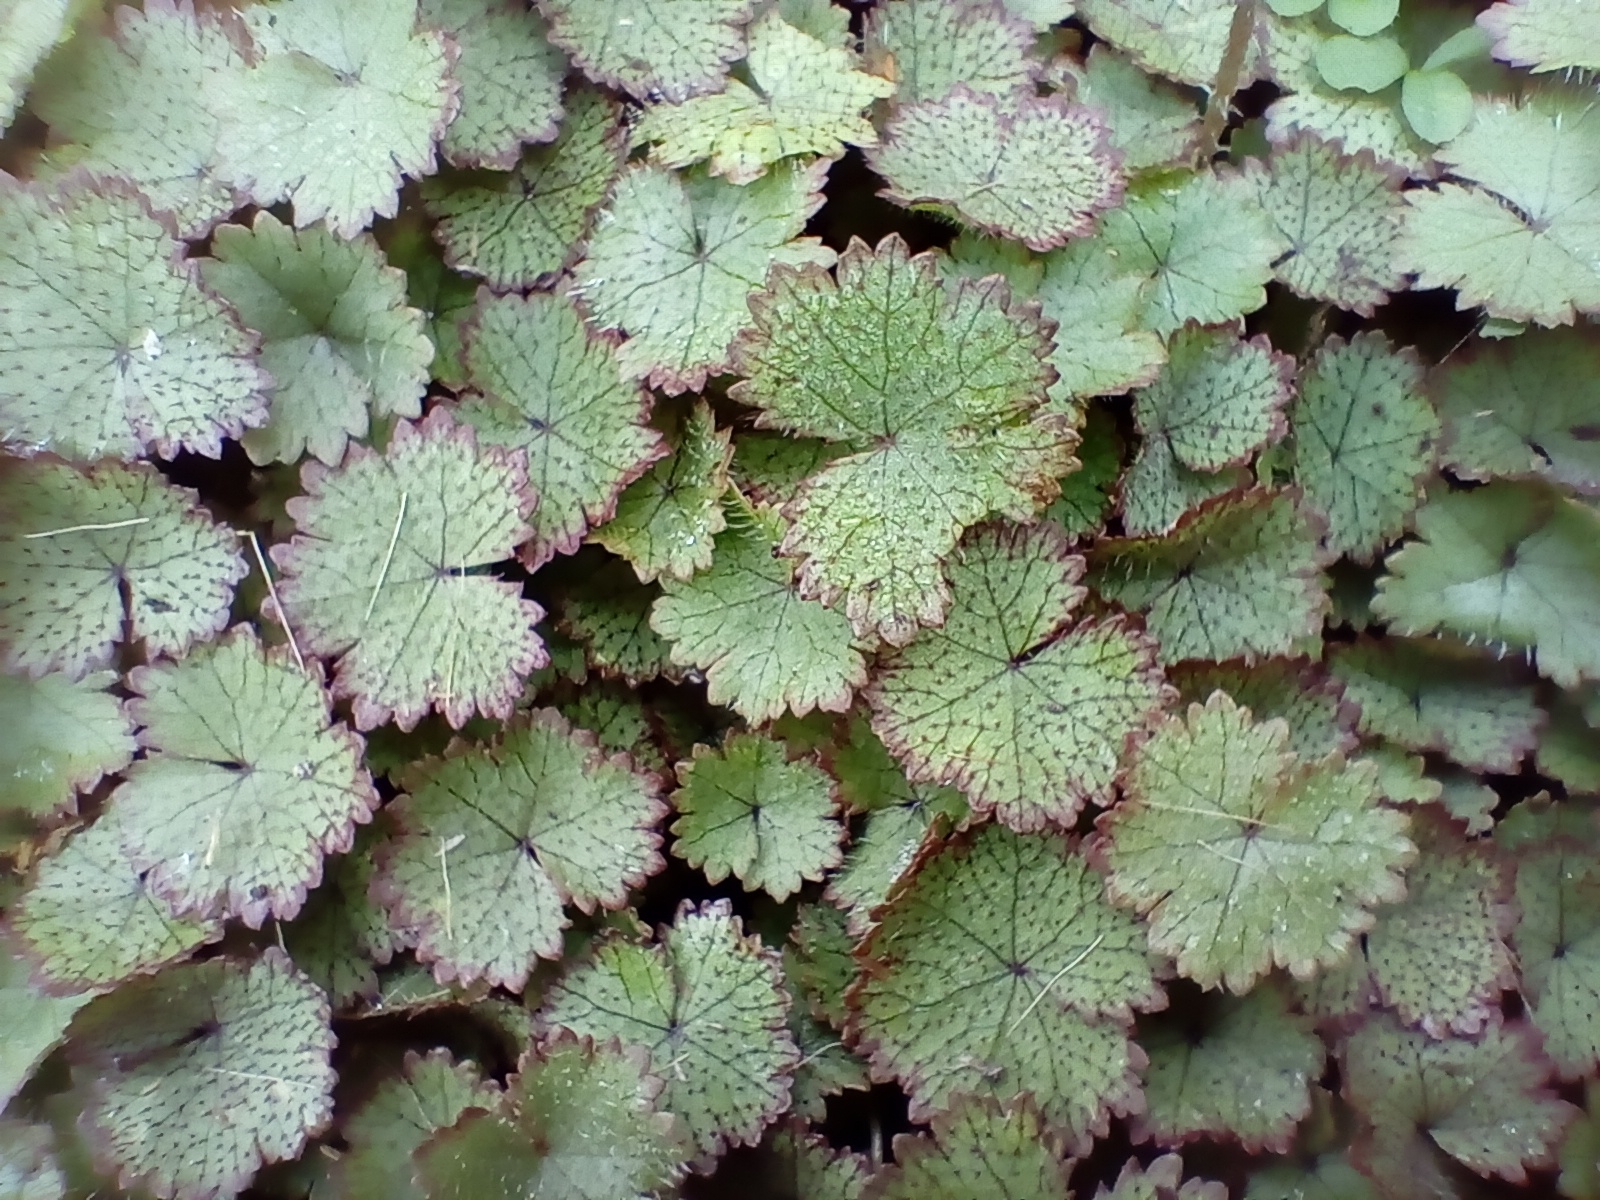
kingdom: Plantae
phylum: Tracheophyta
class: Magnoliopsida
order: Apiales
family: Araliaceae
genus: Hydrocotyle
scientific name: Hydrocotyle moschata
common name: Hairy pennywort
